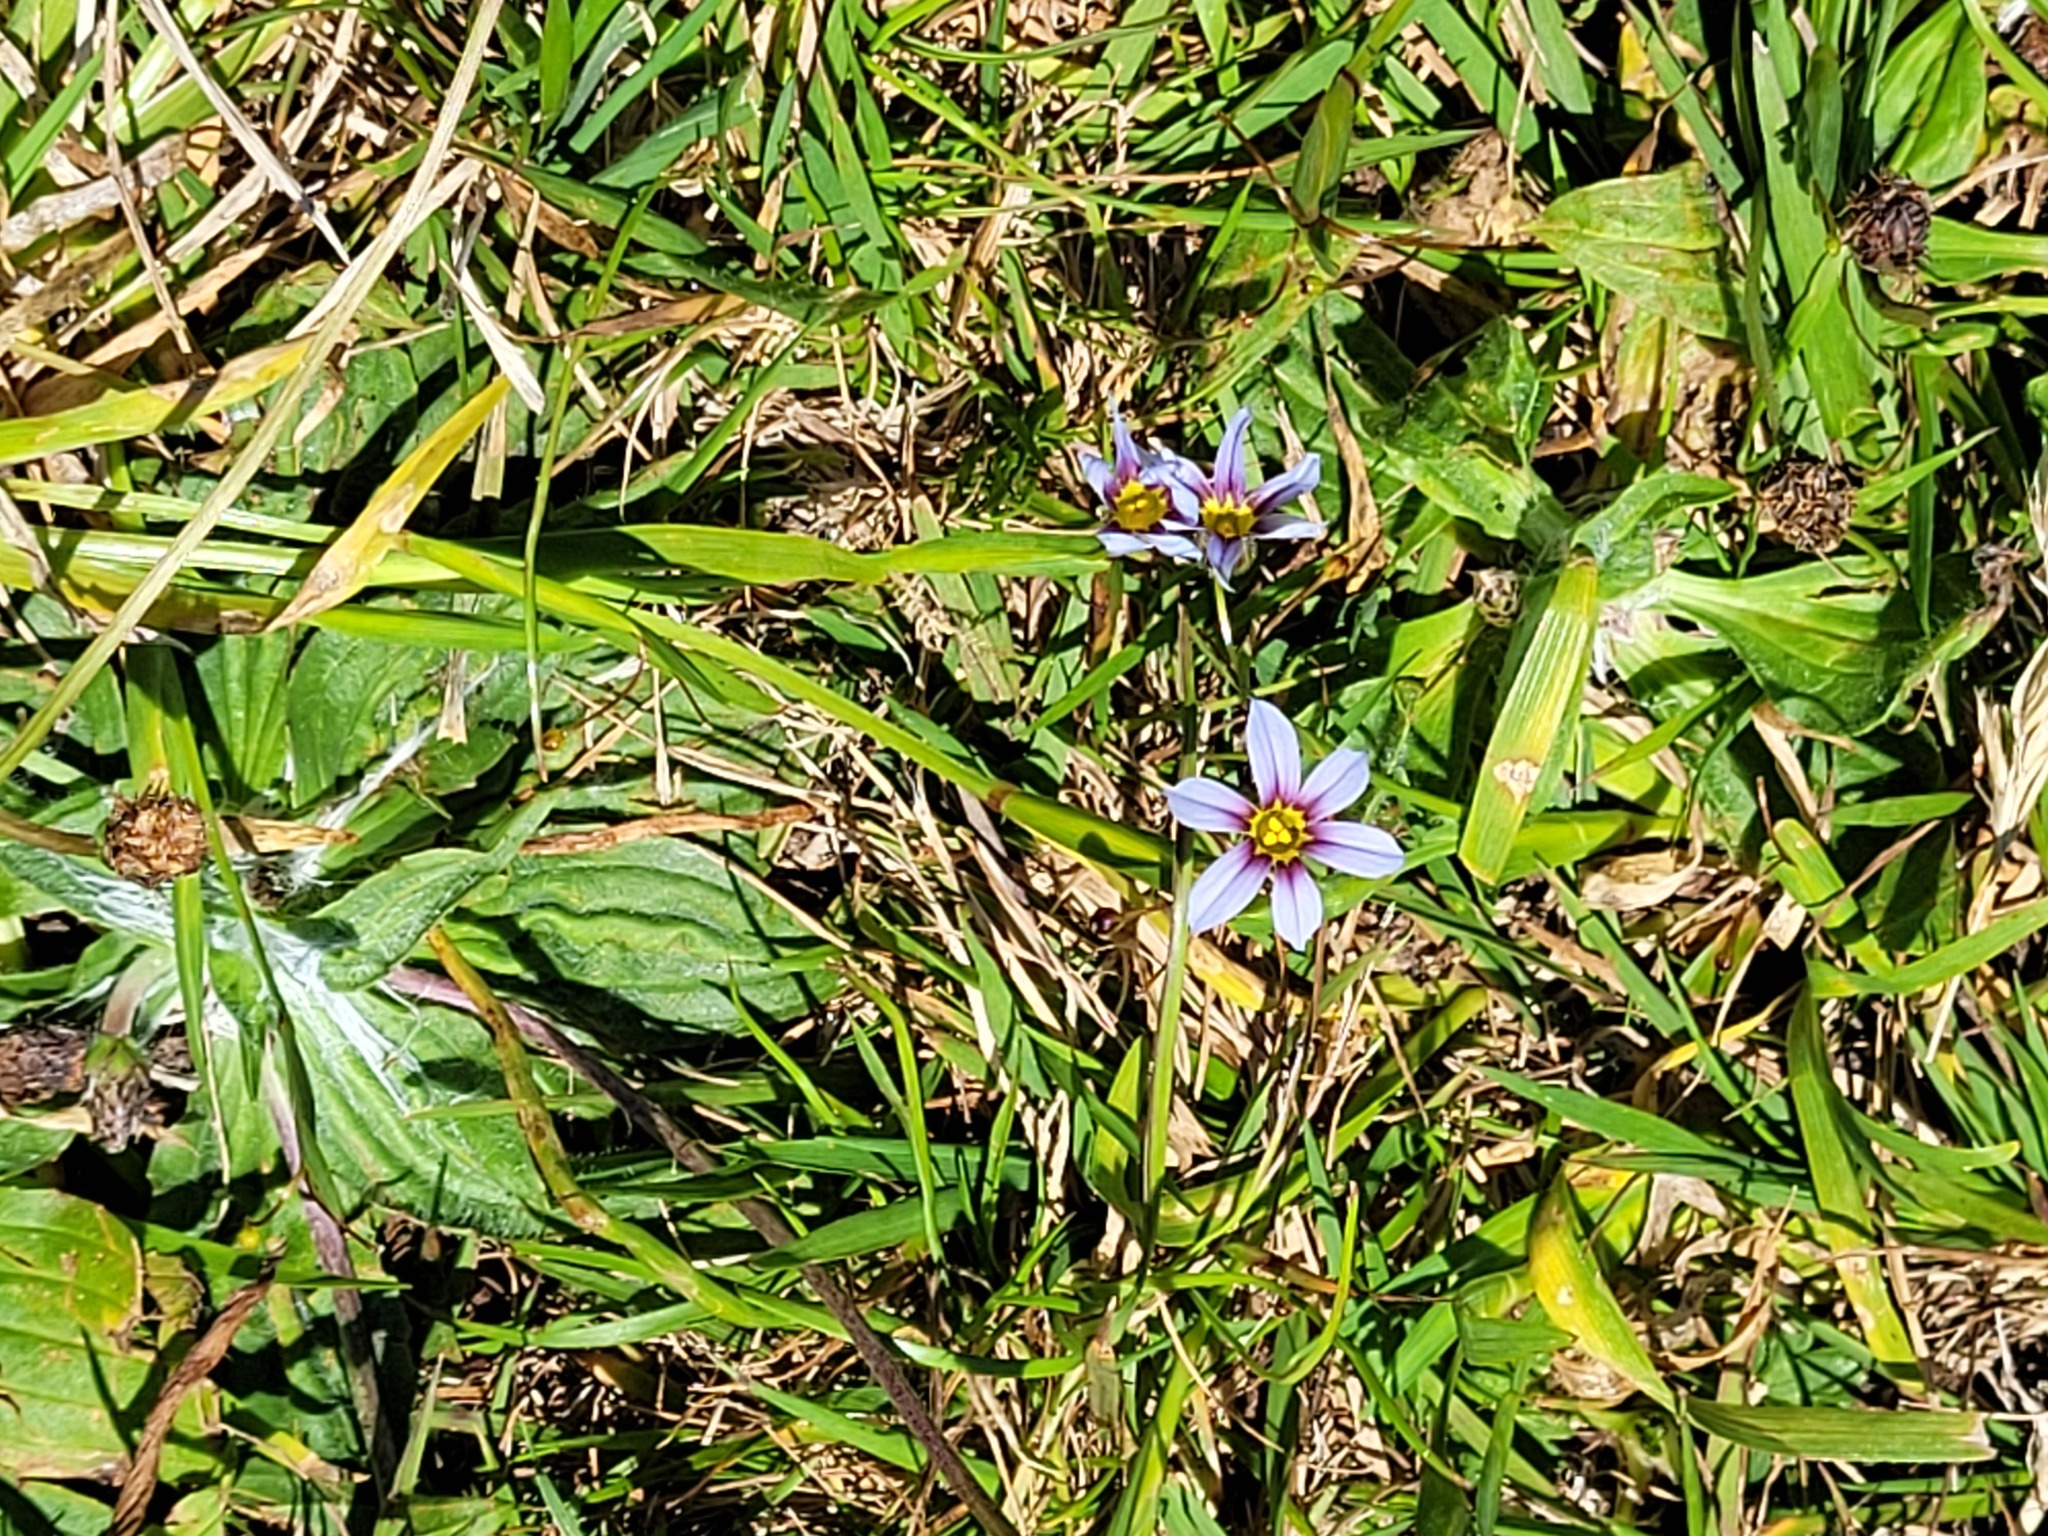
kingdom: Plantae
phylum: Tracheophyta
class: Liliopsida
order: Asparagales
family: Iridaceae
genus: Sisyrinchium
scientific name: Sisyrinchium micranthum
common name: Bermuda pigroot
